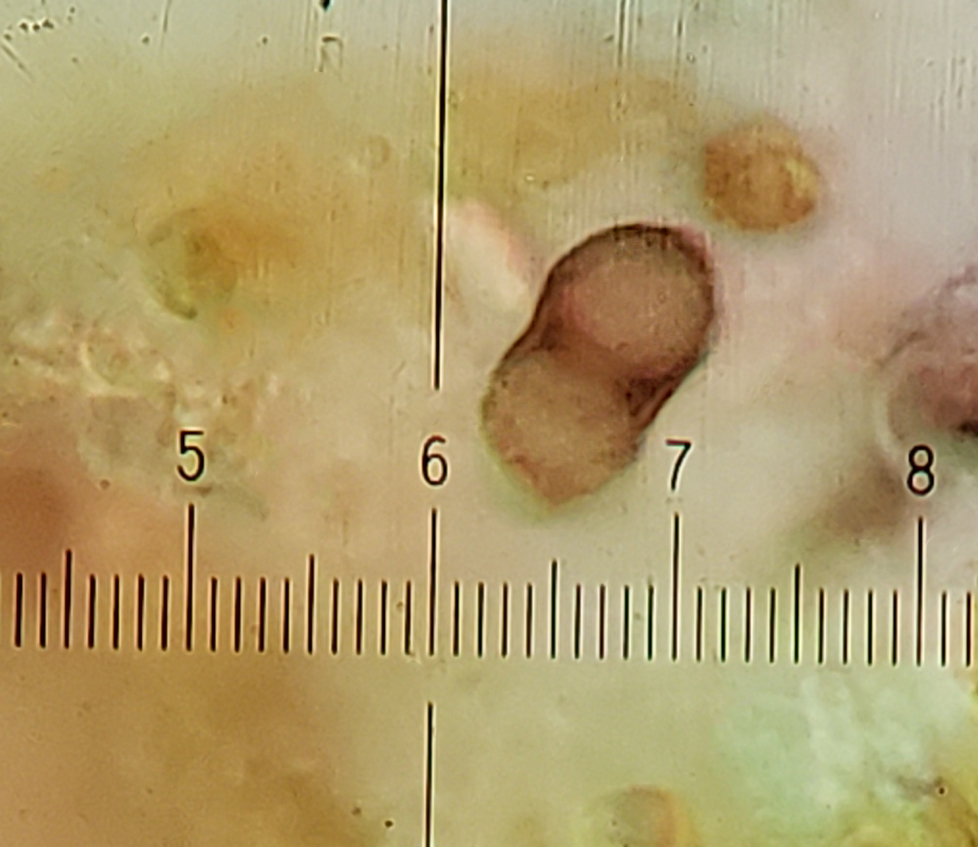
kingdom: Fungi
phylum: Ascomycota
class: Lecanoromycetes
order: Caliciales
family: Caliciaceae
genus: Buellia
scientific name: Buellia dakotensis
